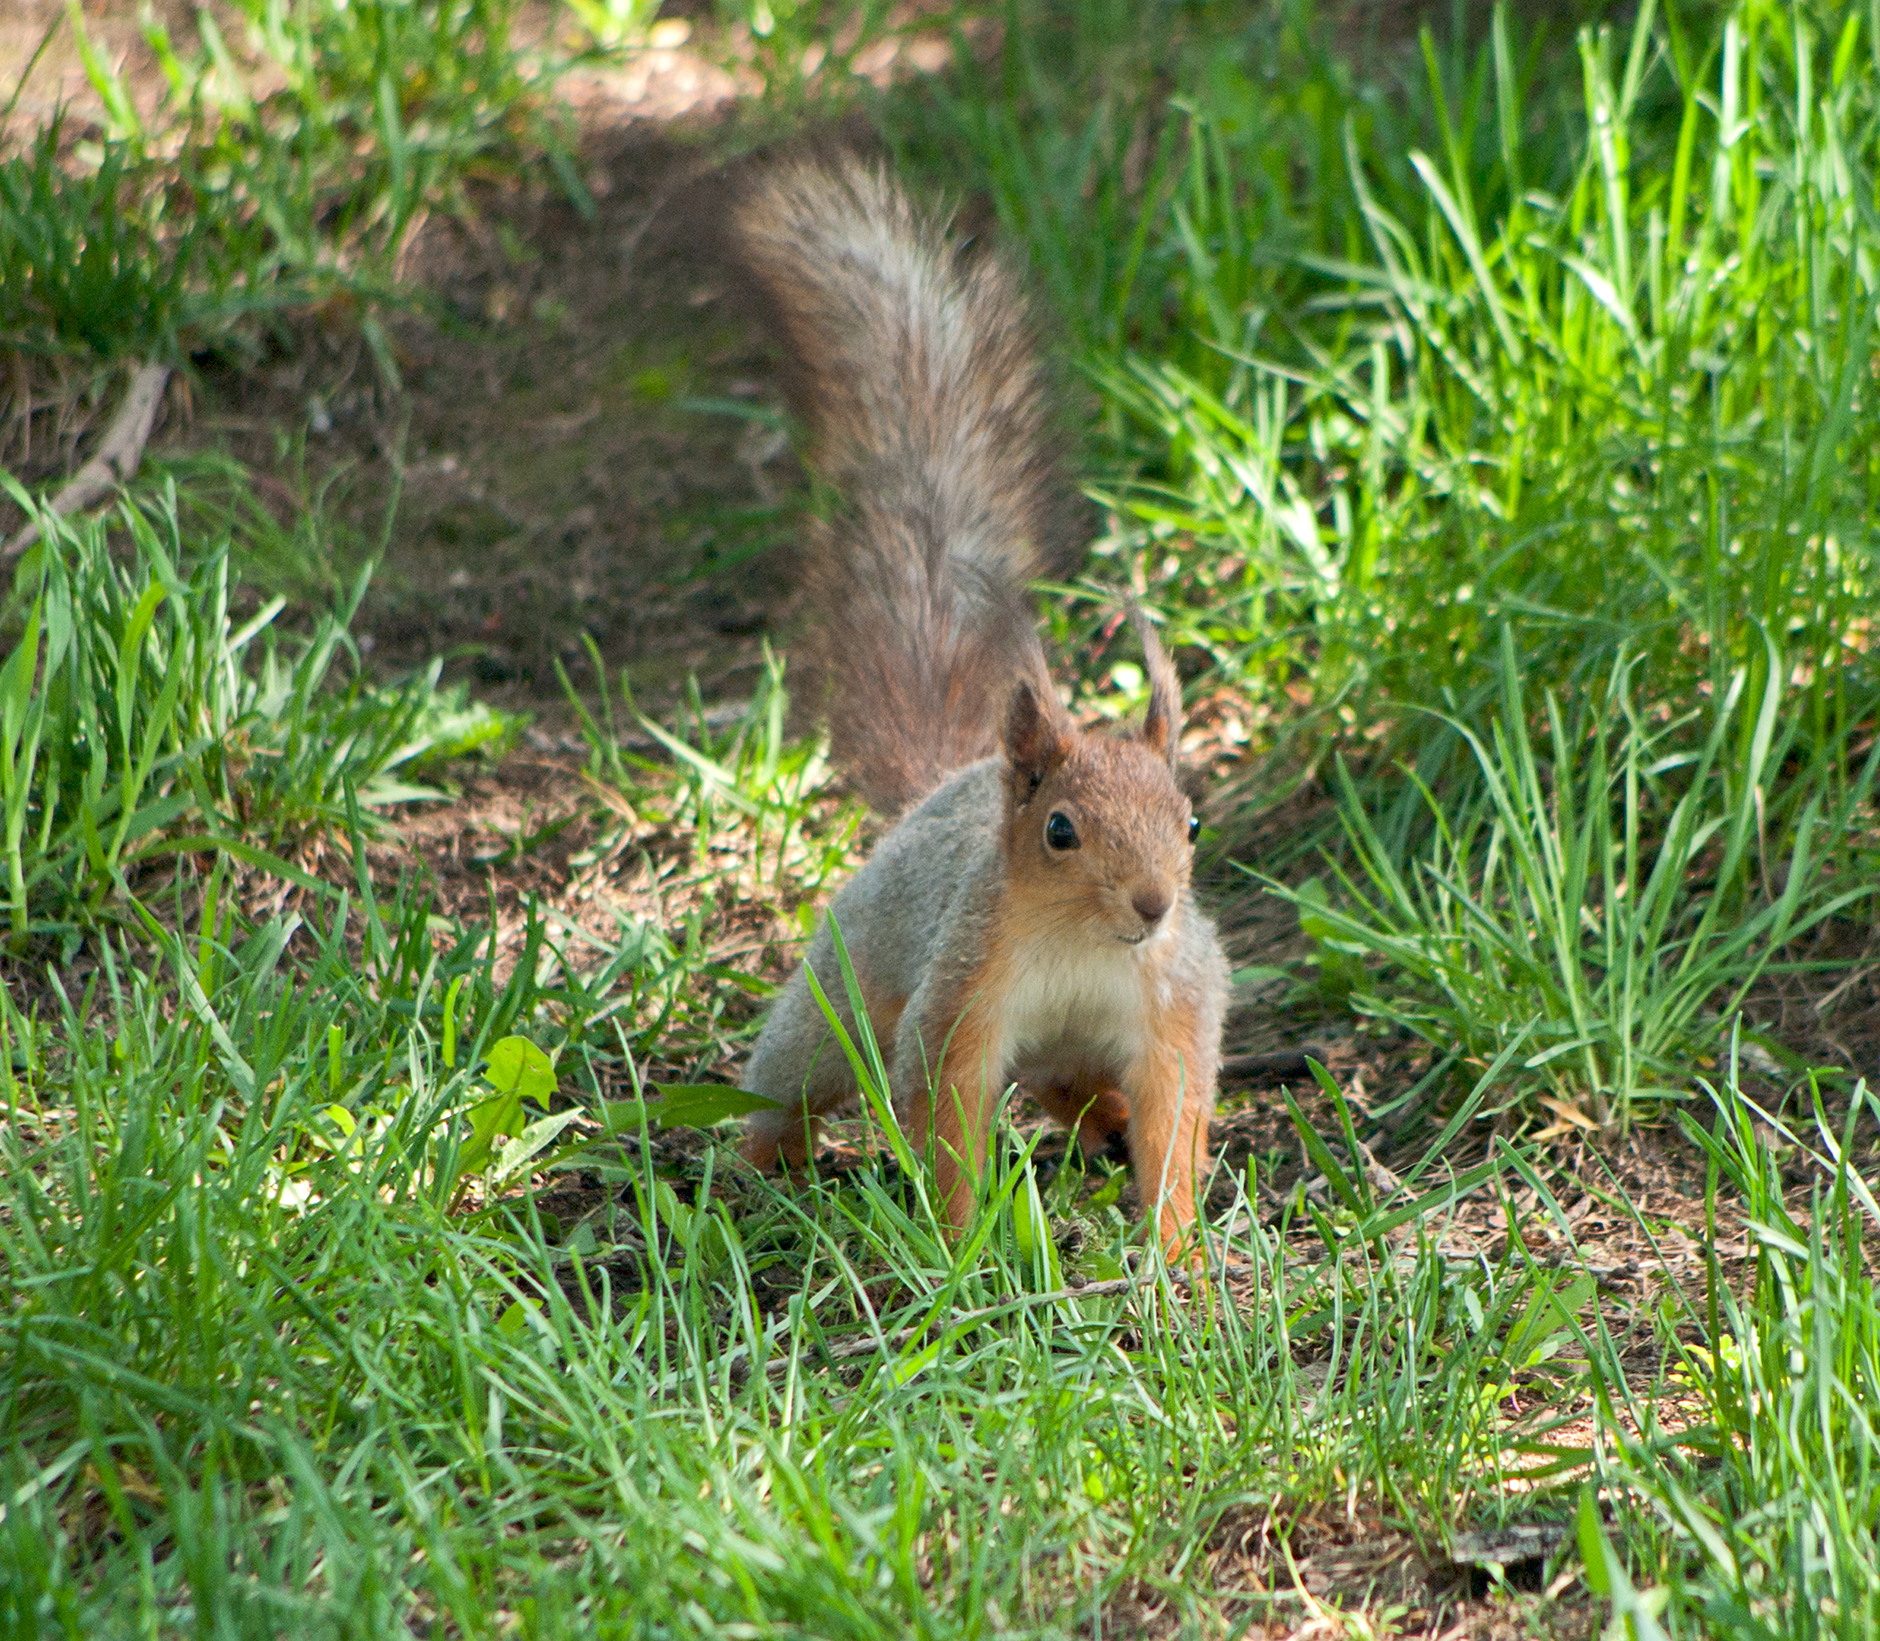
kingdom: Animalia
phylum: Chordata
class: Mammalia
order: Rodentia
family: Sciuridae
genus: Sciurus
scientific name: Sciurus vulgaris
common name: Eurasian red squirrel
